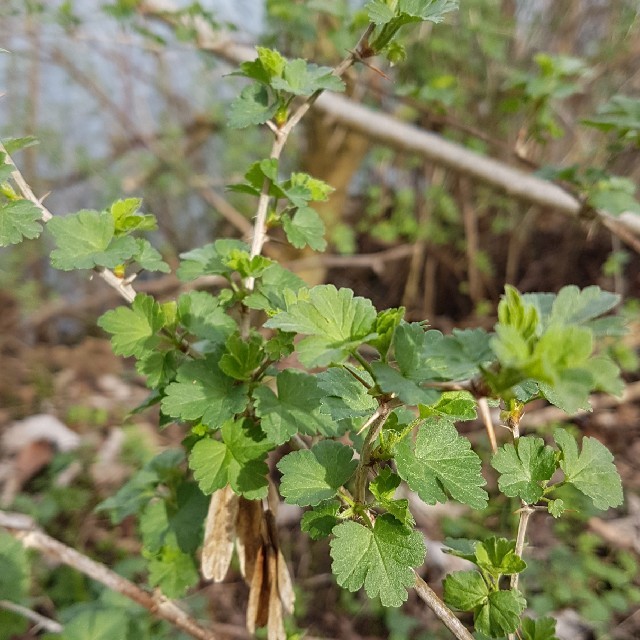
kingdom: Plantae
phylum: Tracheophyta
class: Magnoliopsida
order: Saxifragales
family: Grossulariaceae
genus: Ribes
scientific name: Ribes uva-crispa
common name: Gooseberry
